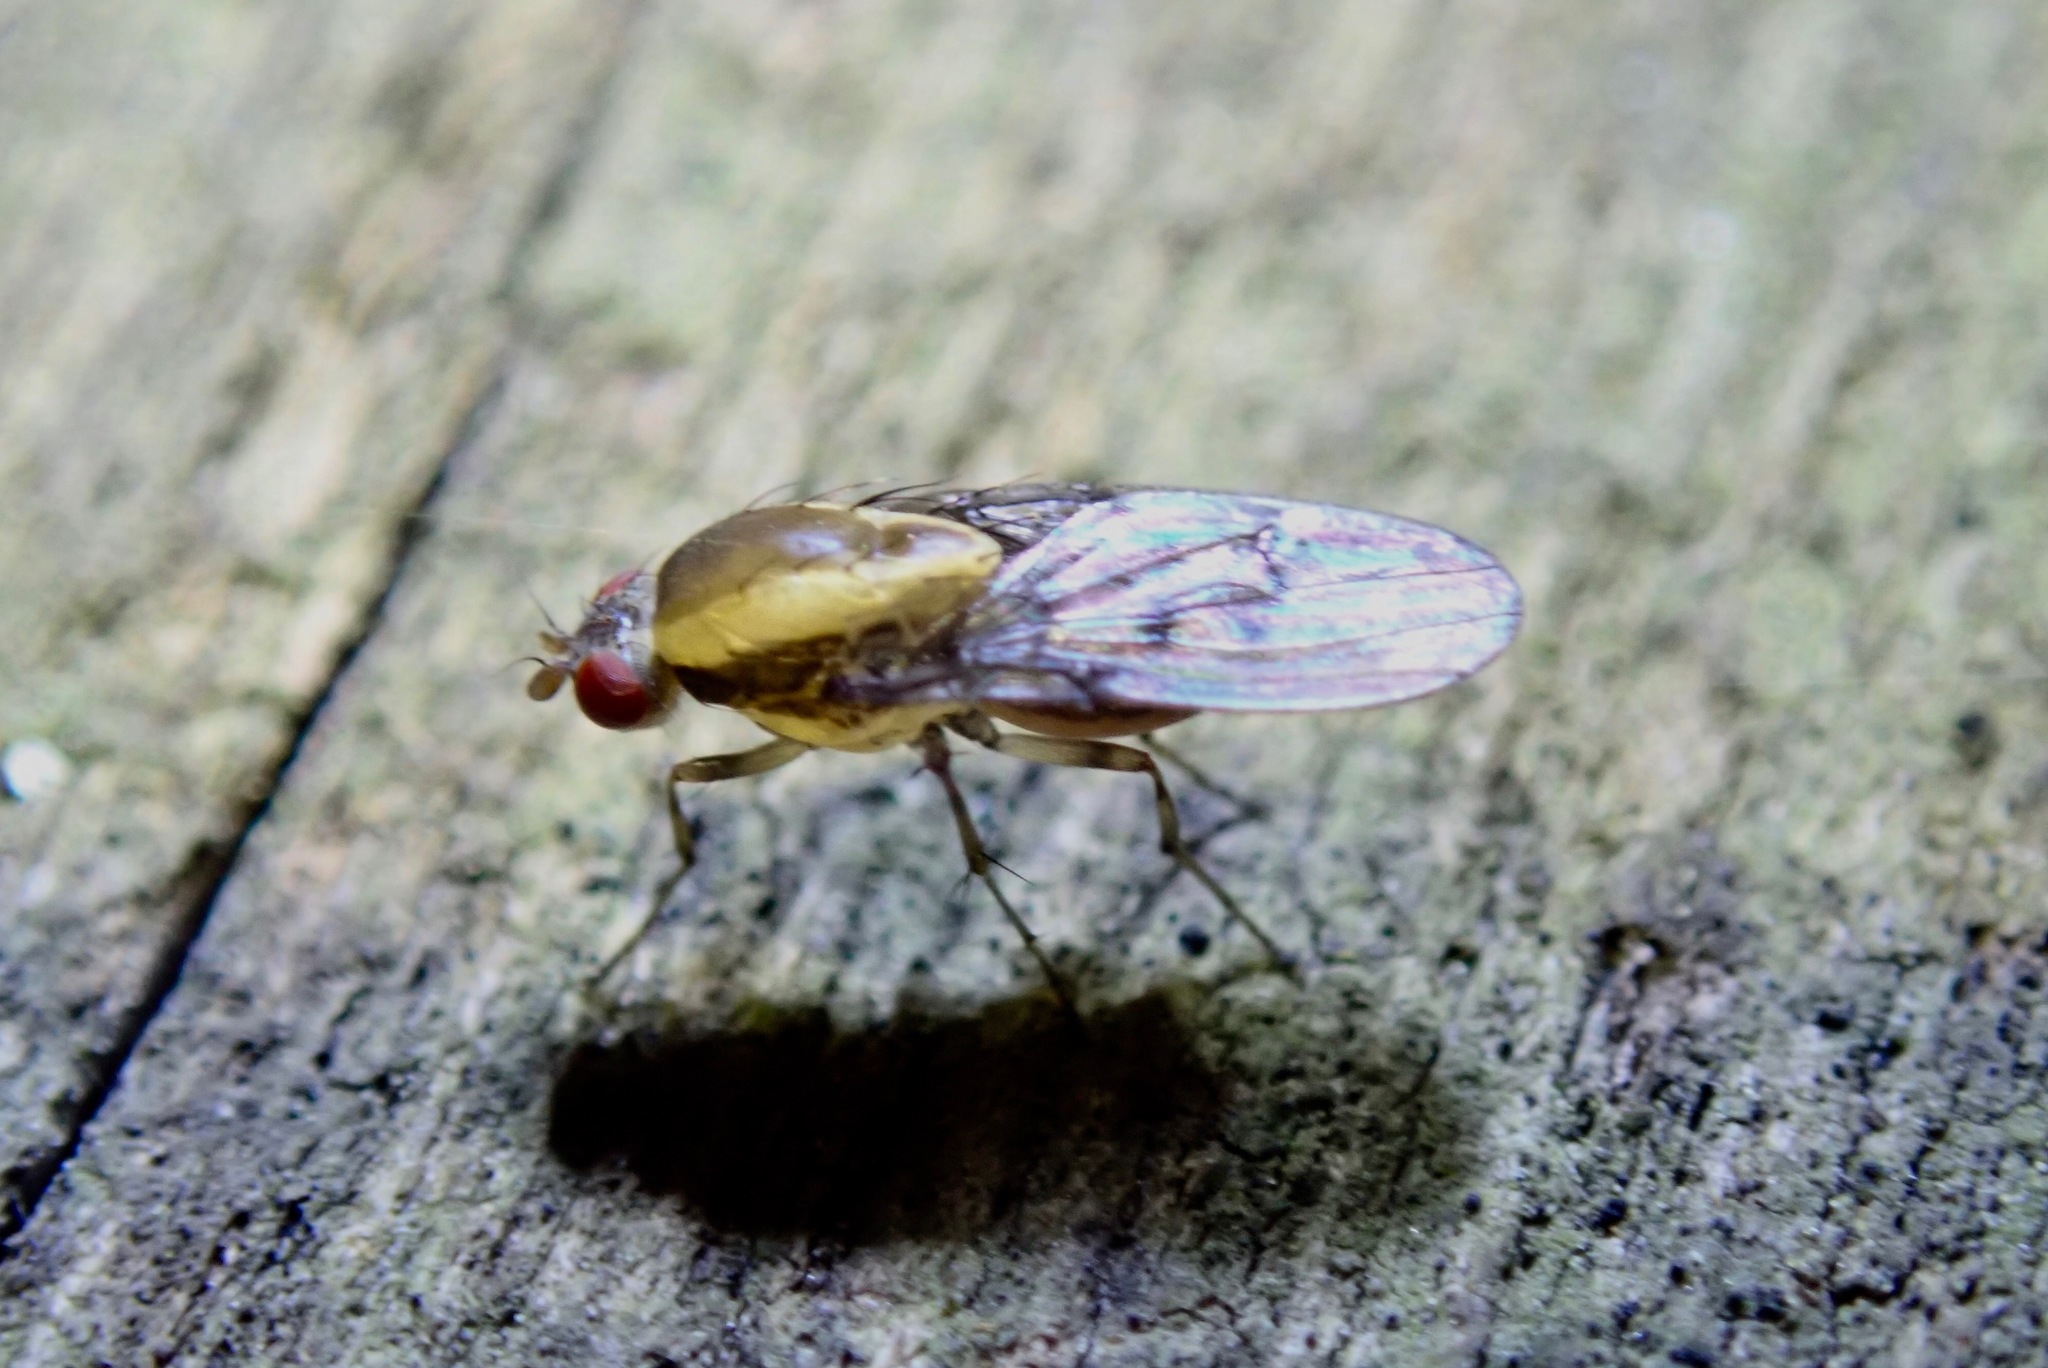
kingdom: Animalia
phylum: Arthropoda
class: Insecta
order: Diptera
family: Heleomyzidae
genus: Allophylopsis
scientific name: Allophylopsis scutellata
